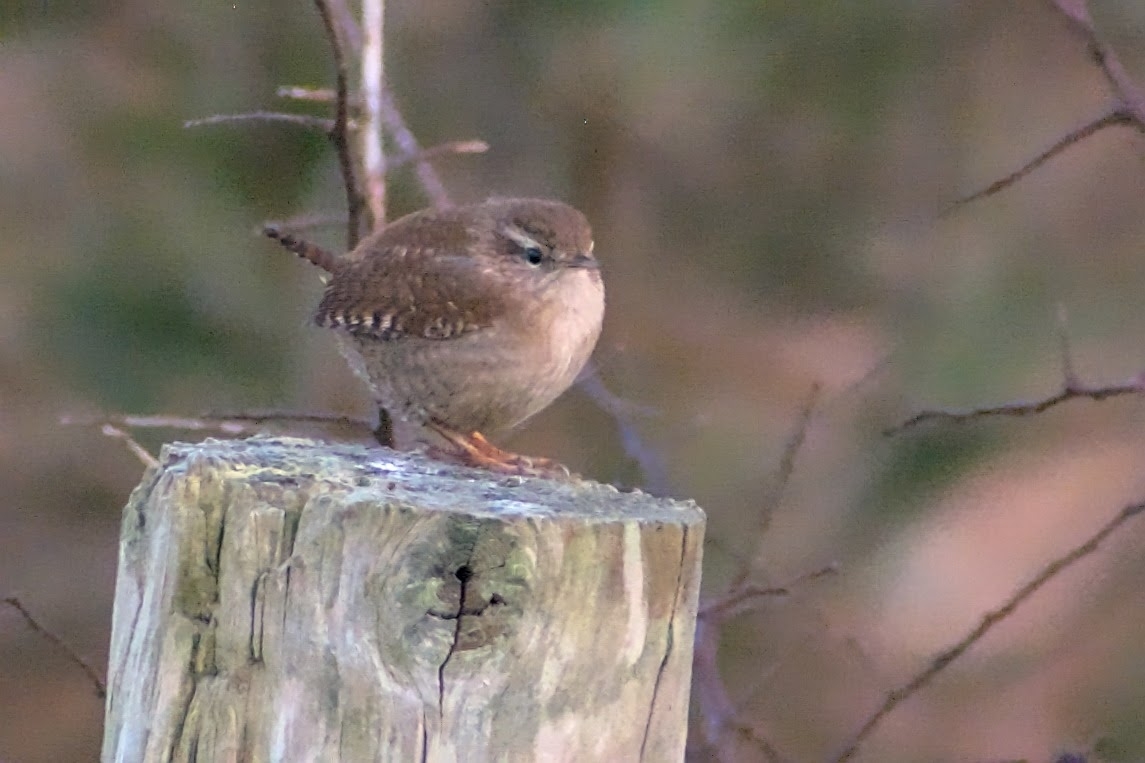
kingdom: Animalia
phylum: Chordata
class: Aves
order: Passeriformes
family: Troglodytidae
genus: Troglodytes
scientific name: Troglodytes troglodytes
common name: Eurasian wren
